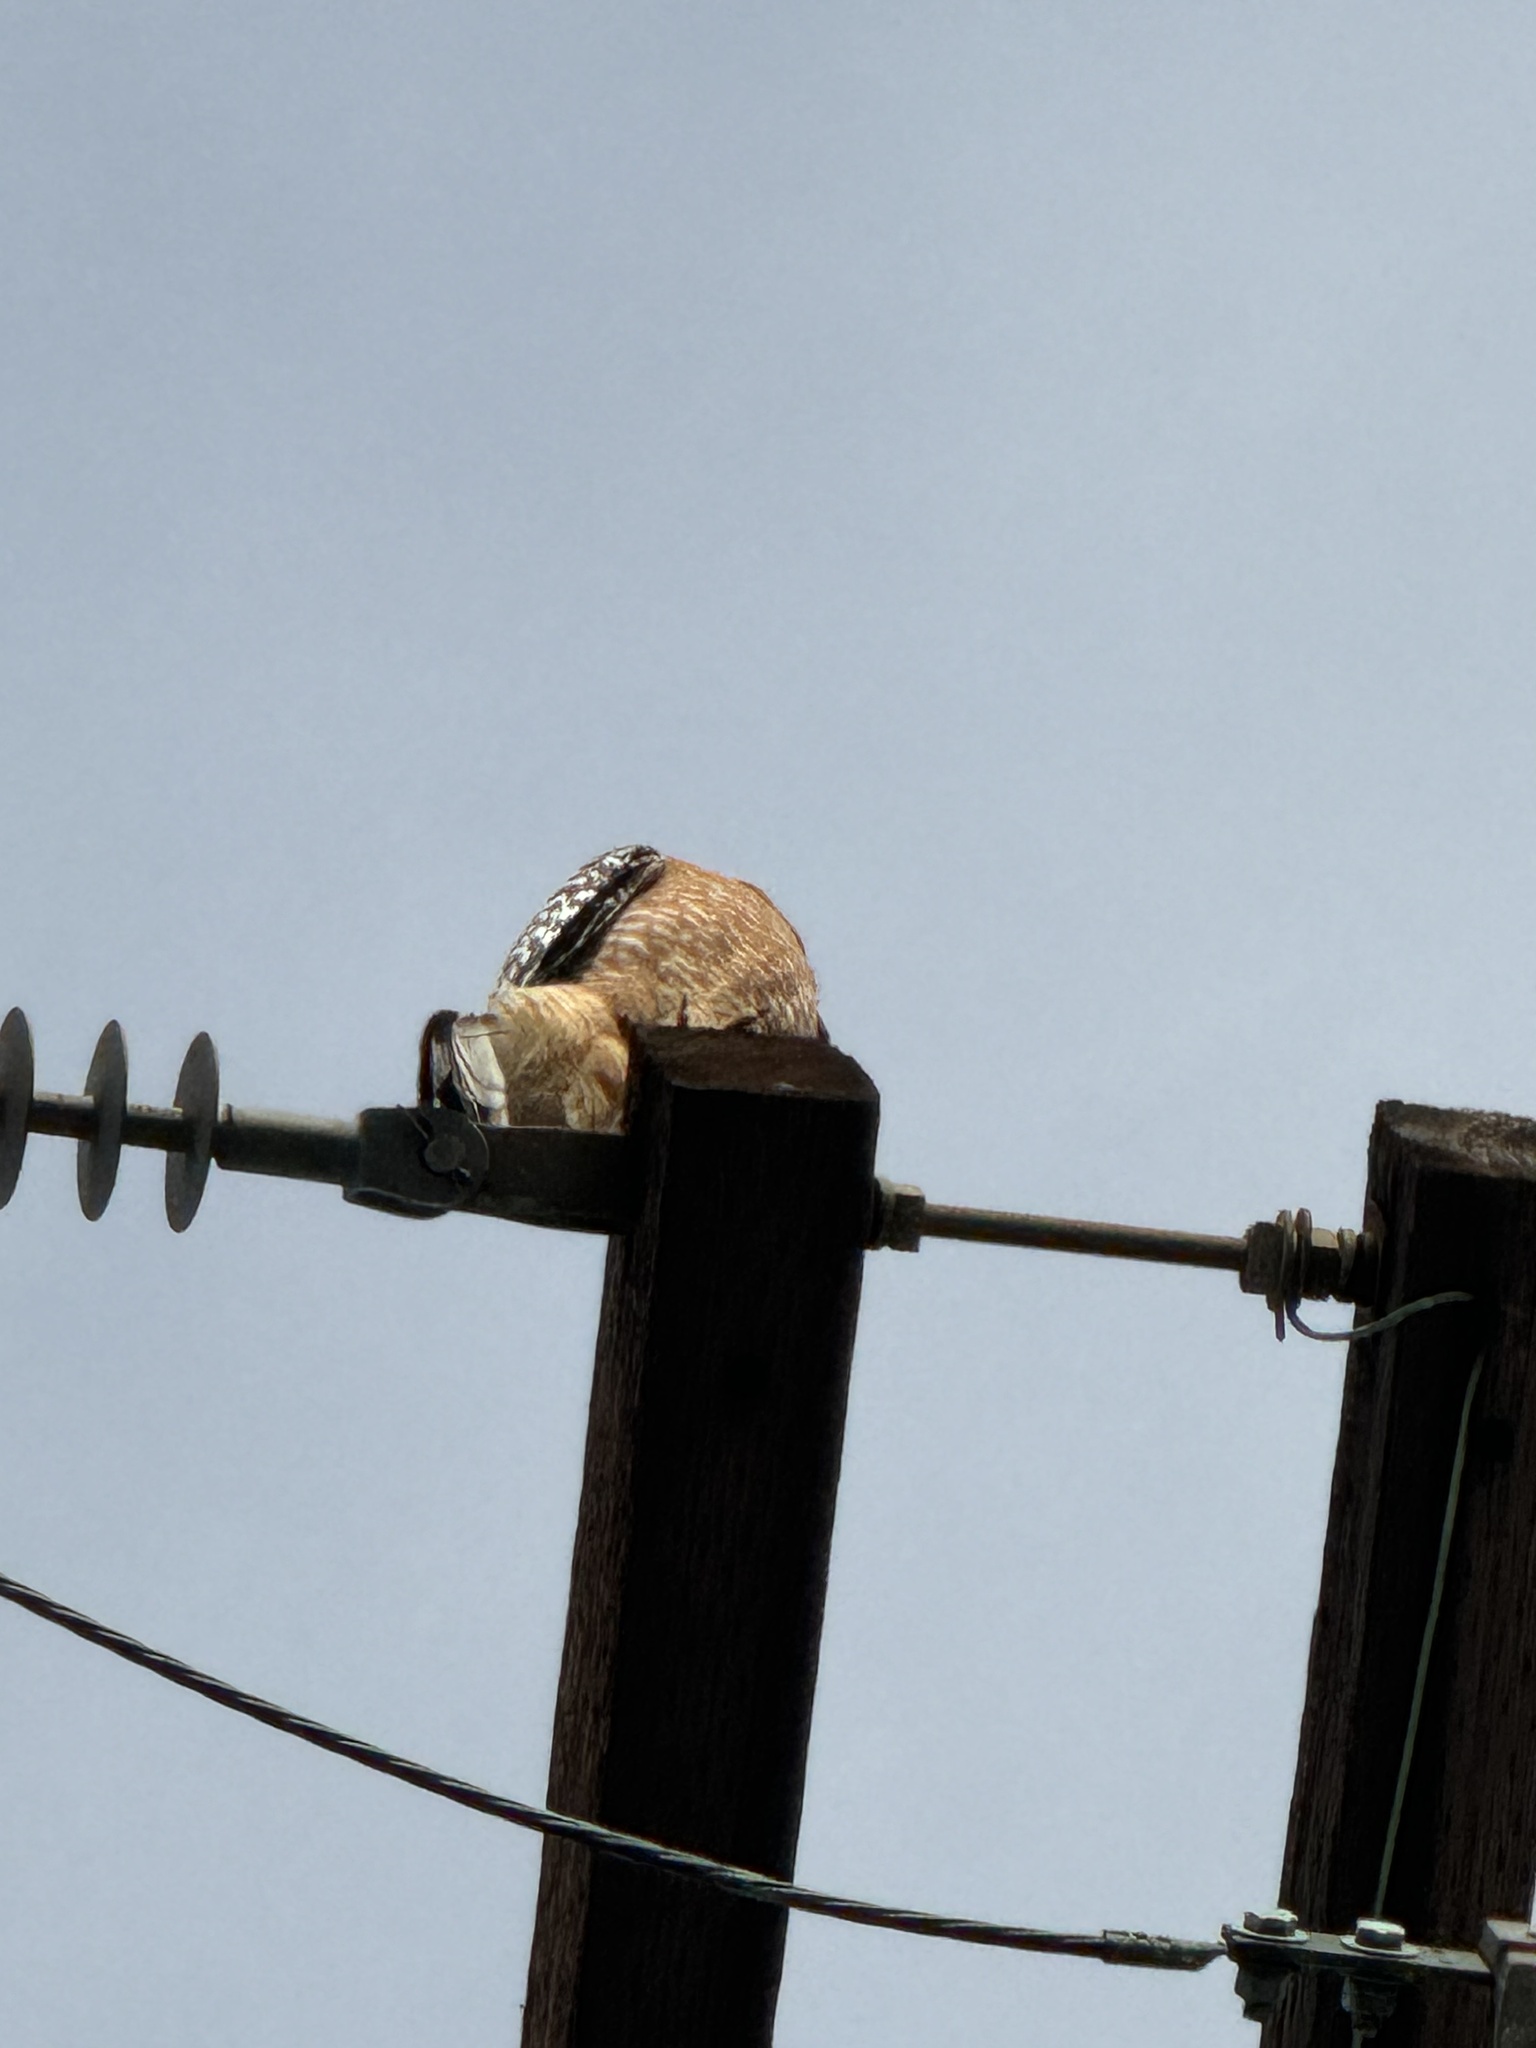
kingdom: Animalia
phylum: Chordata
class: Aves
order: Accipitriformes
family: Accipitridae
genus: Buteo
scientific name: Buteo lineatus
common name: Red-shouldered hawk
